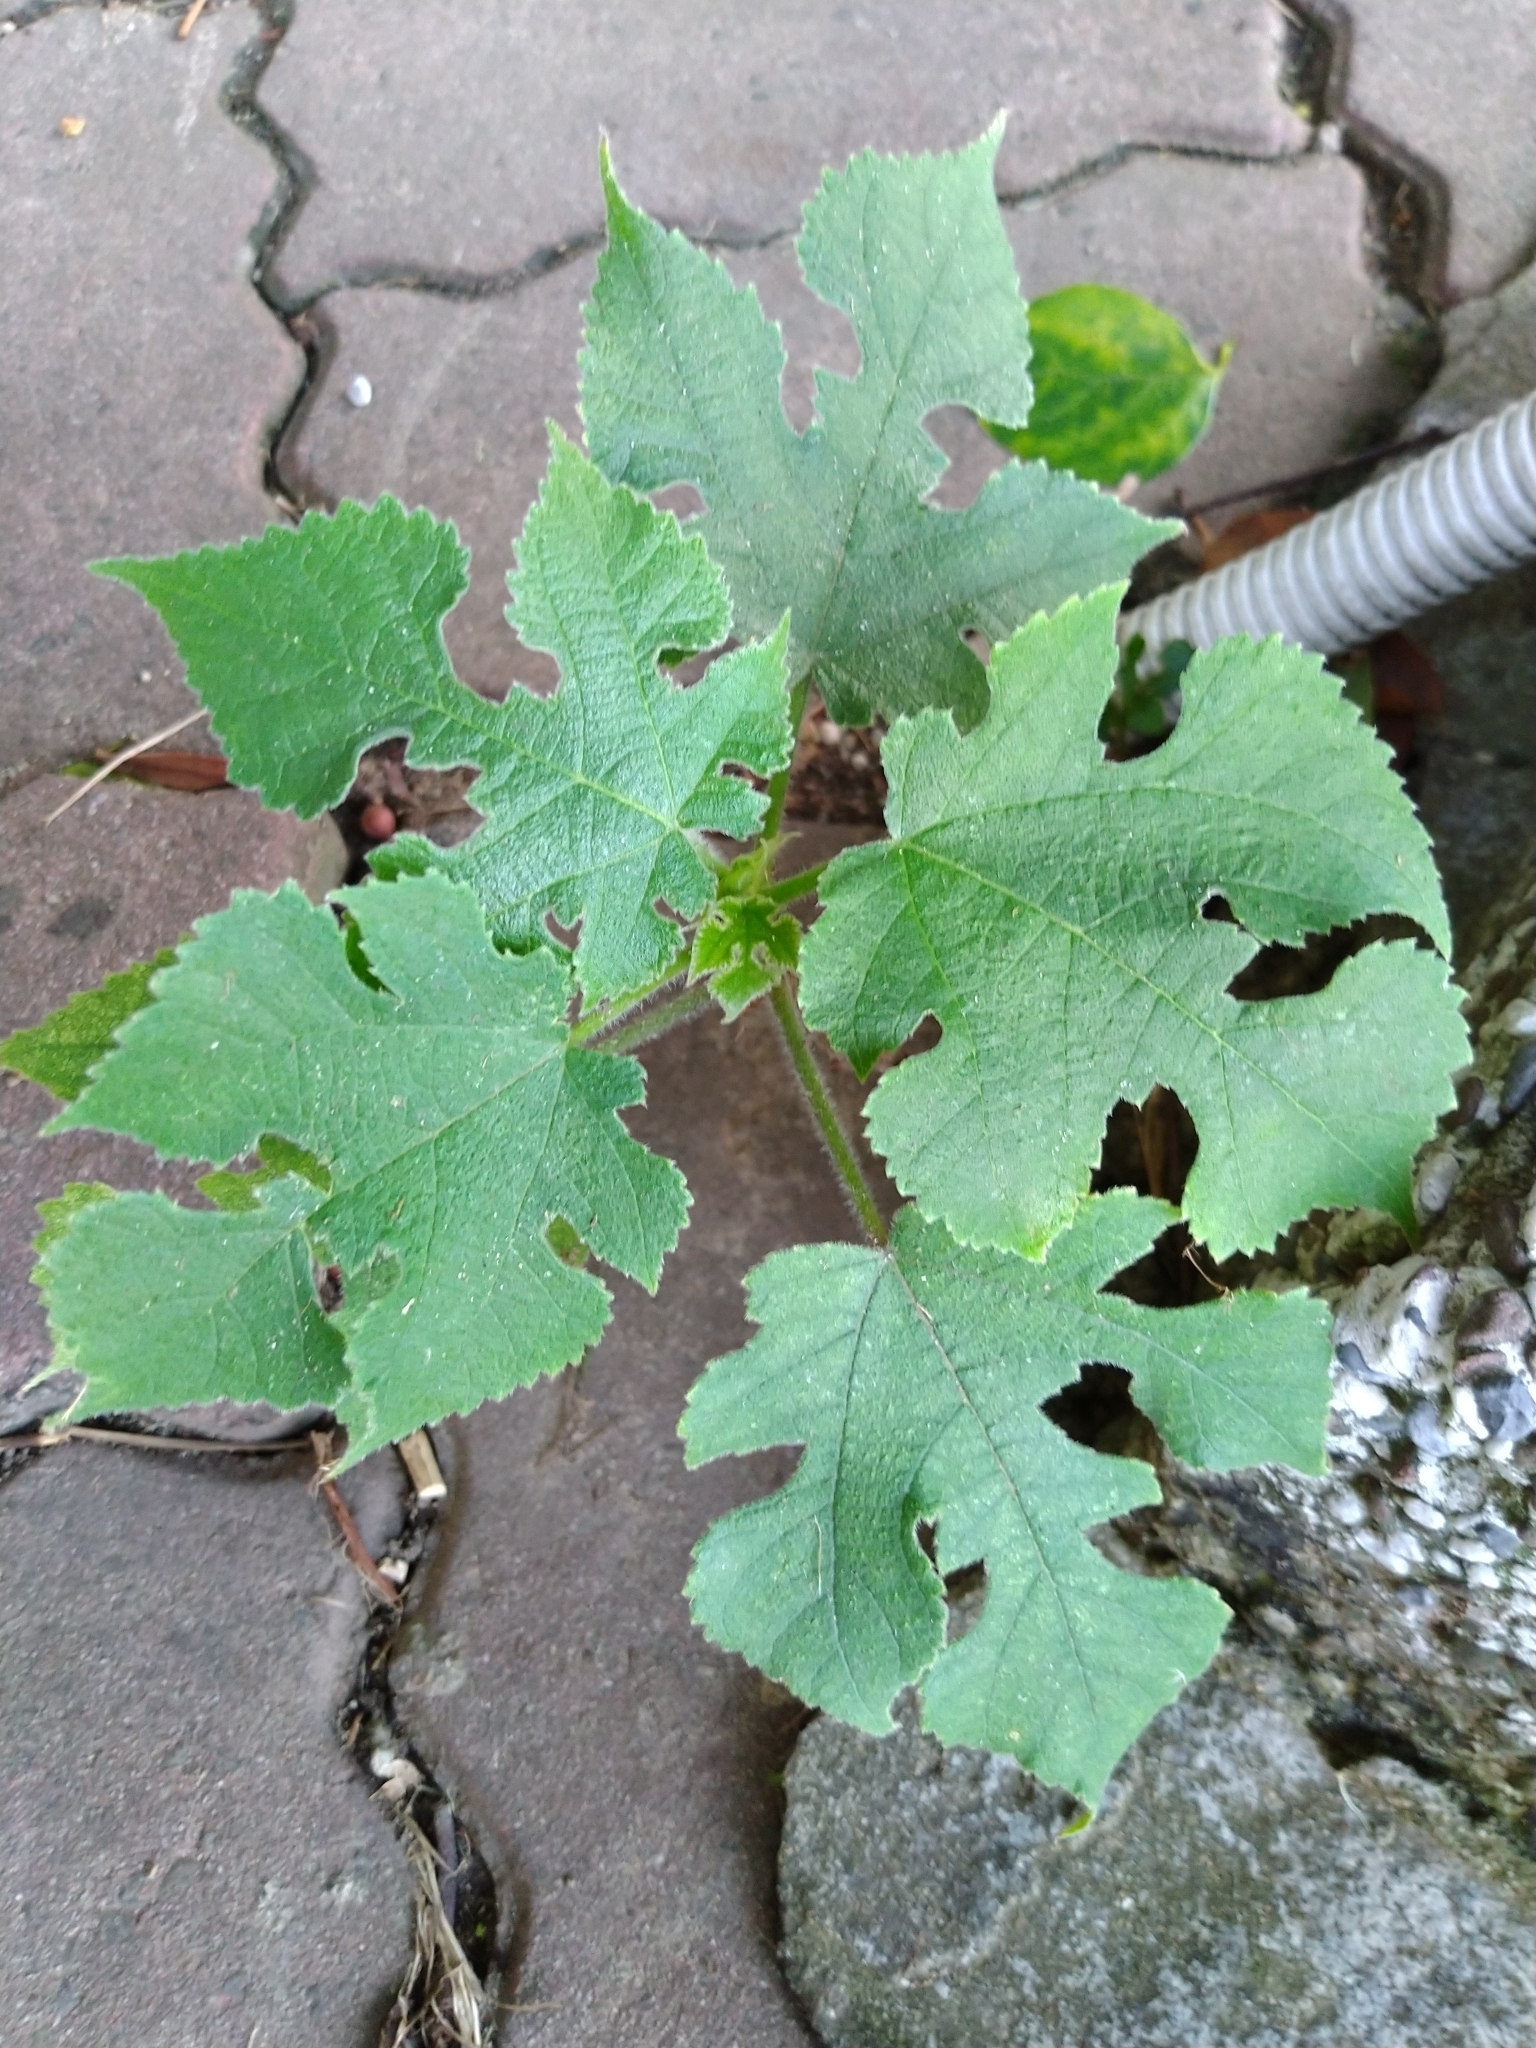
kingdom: Plantae
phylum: Tracheophyta
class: Magnoliopsida
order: Rosales
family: Moraceae
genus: Broussonetia
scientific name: Broussonetia papyrifera
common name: Paper mulberry
